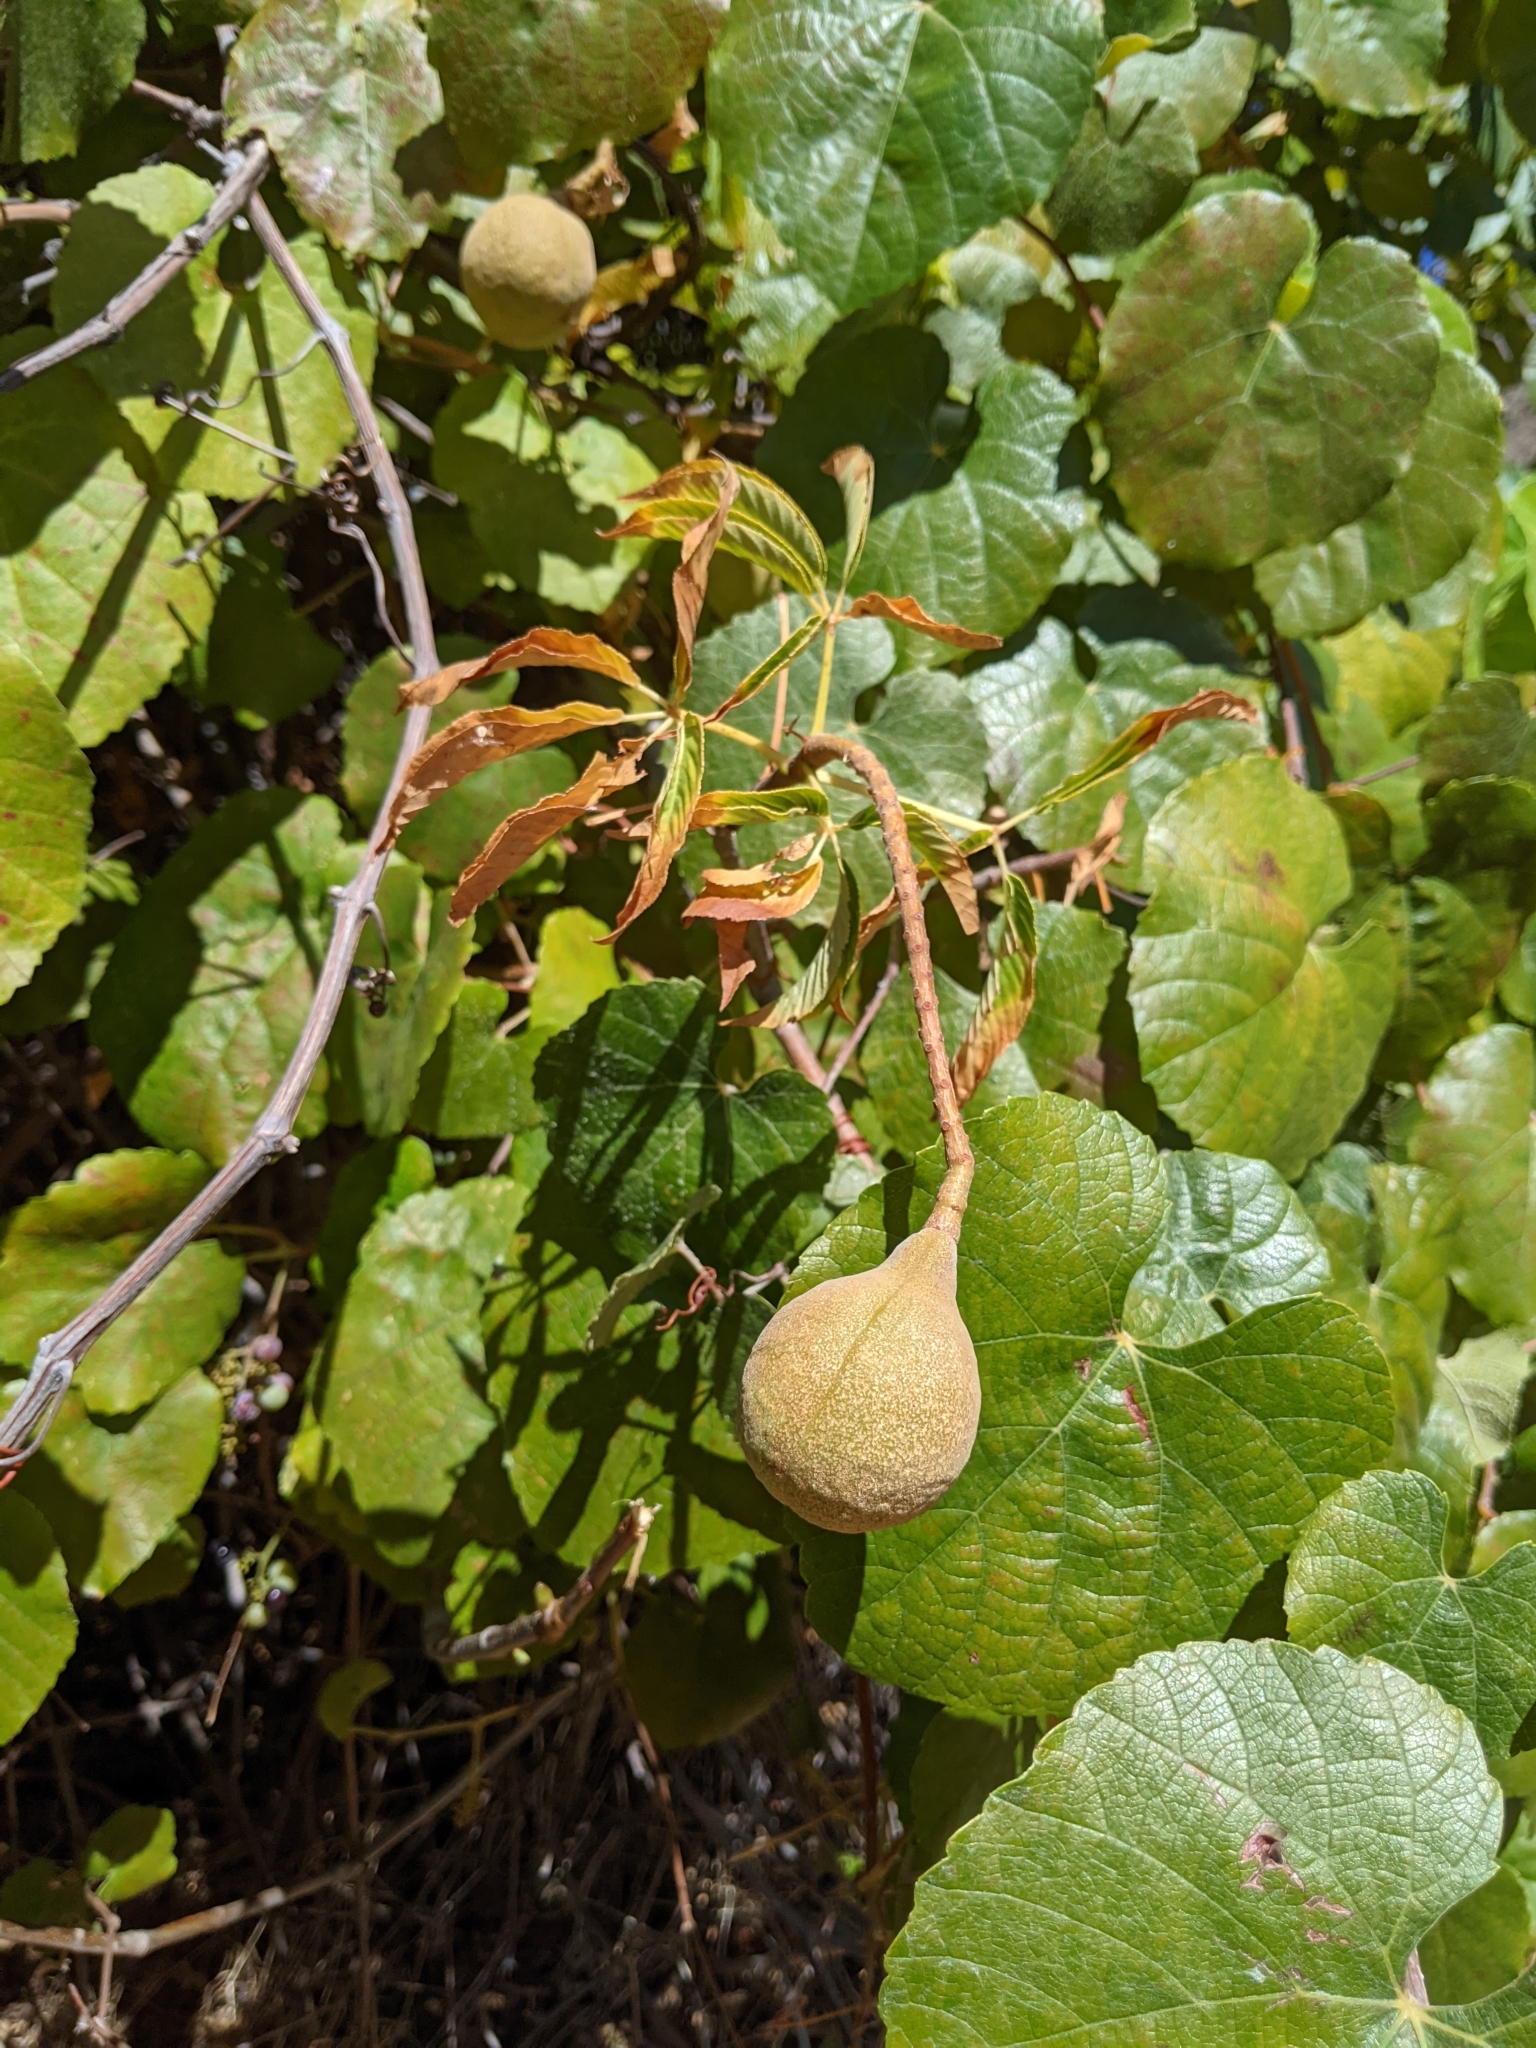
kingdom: Plantae
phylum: Tracheophyta
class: Magnoliopsida
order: Sapindales
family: Sapindaceae
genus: Aesculus
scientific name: Aesculus californica
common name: California buckeye
